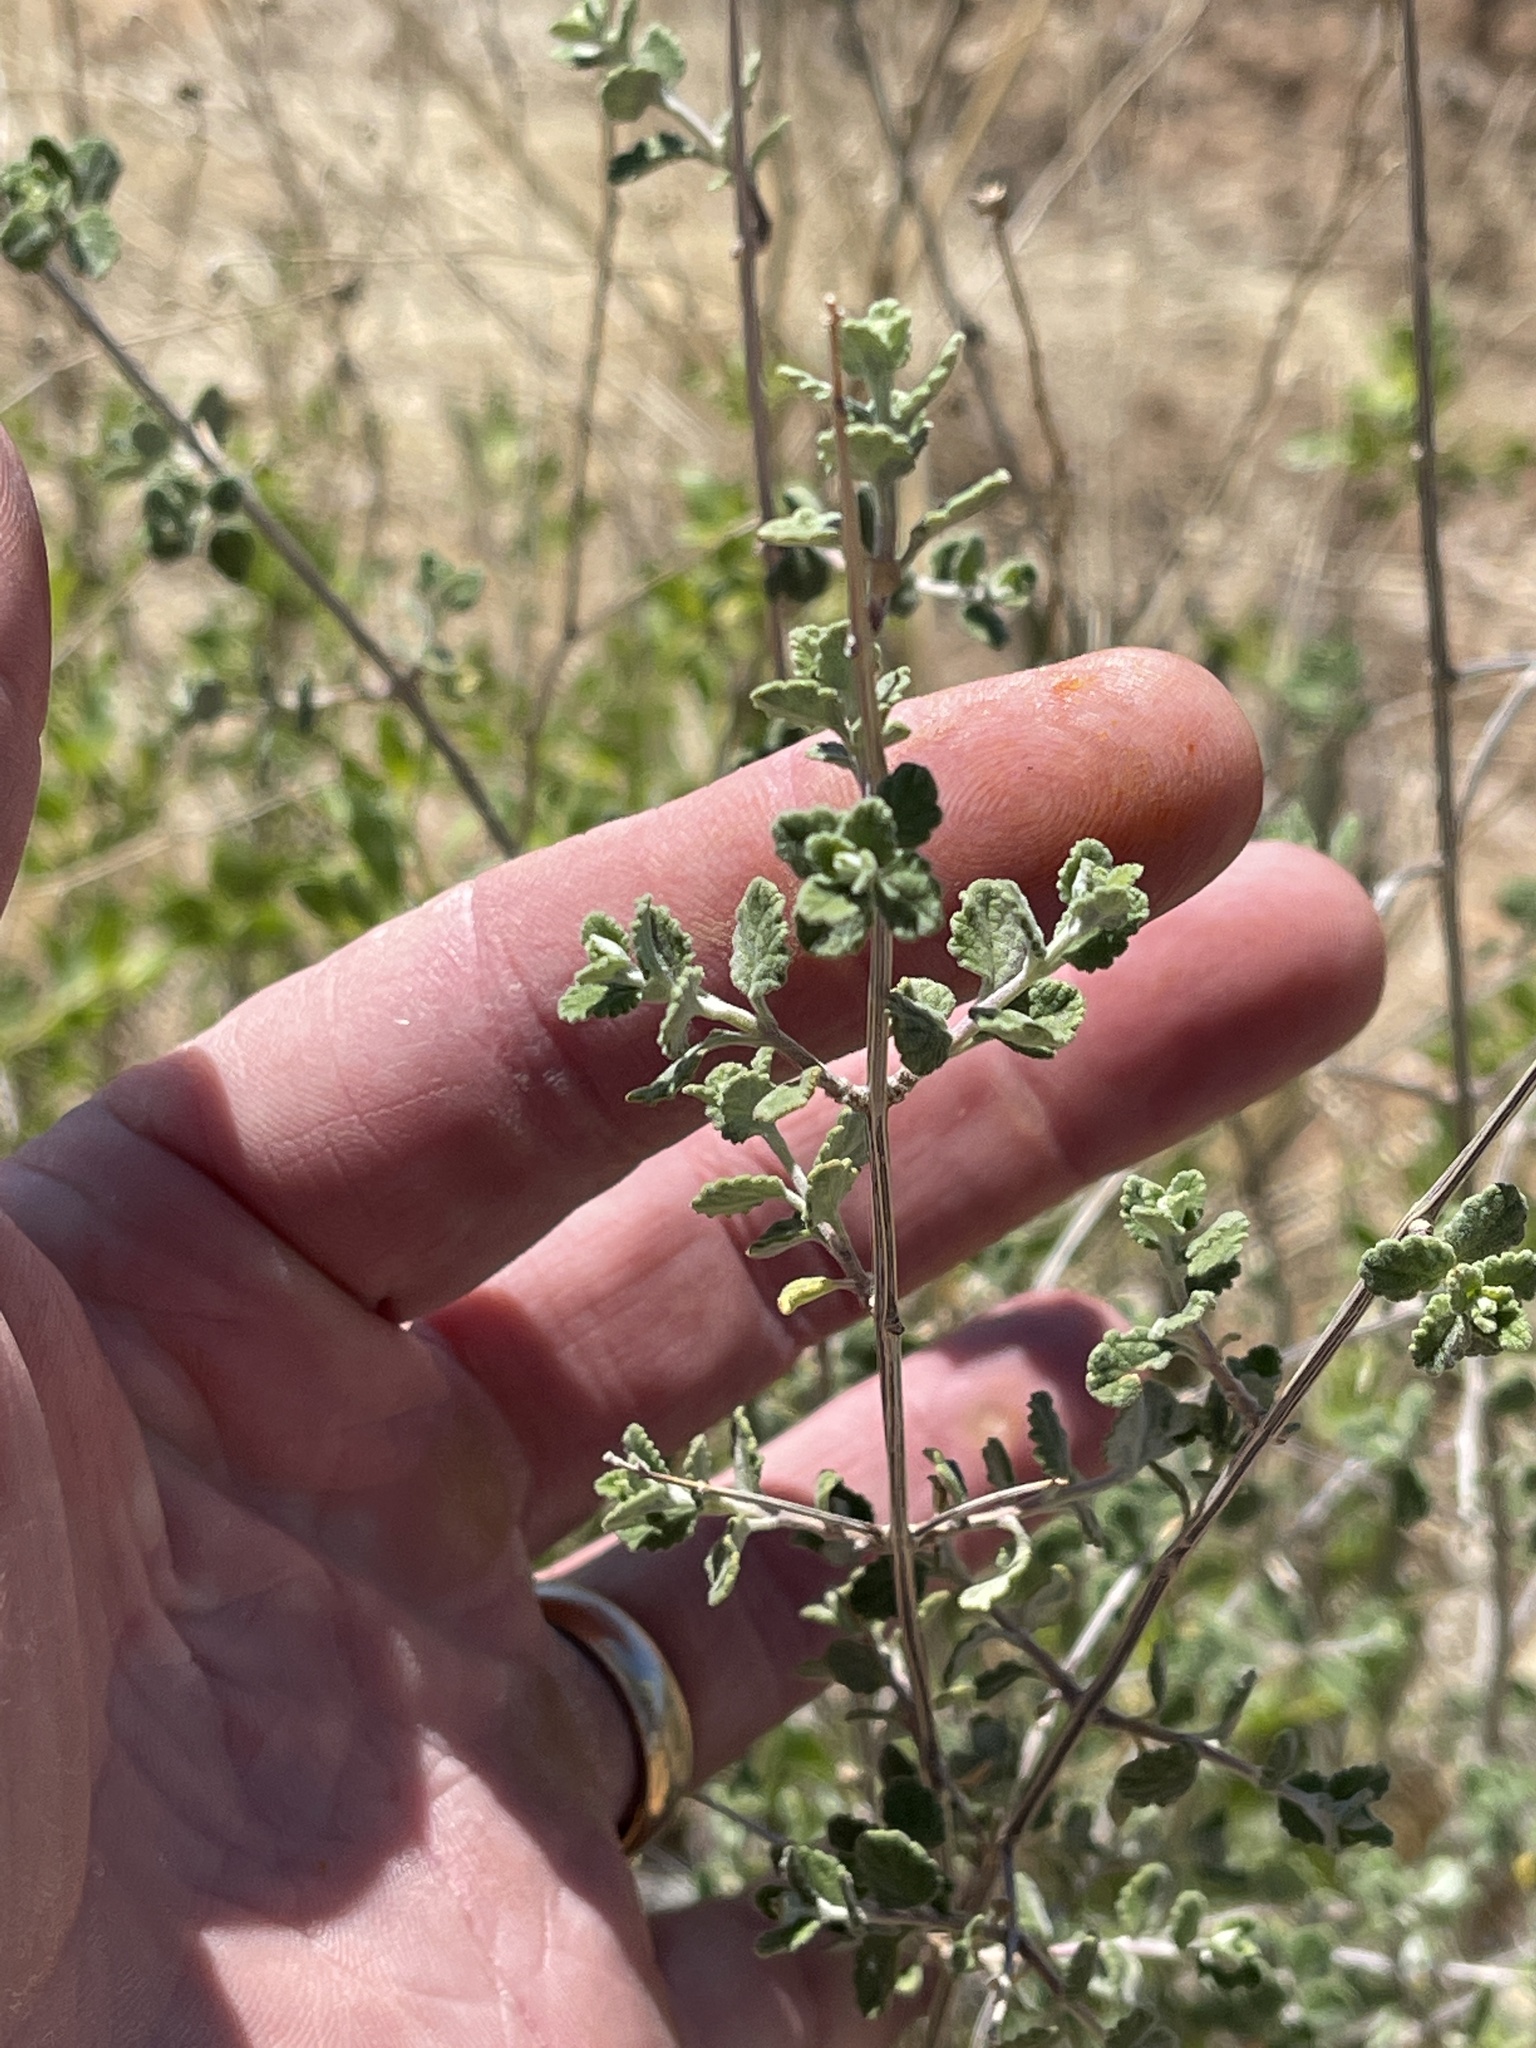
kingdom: Plantae
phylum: Tracheophyta
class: Magnoliopsida
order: Lamiales
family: Verbenaceae
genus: Aloysia
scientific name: Aloysia wrightii
